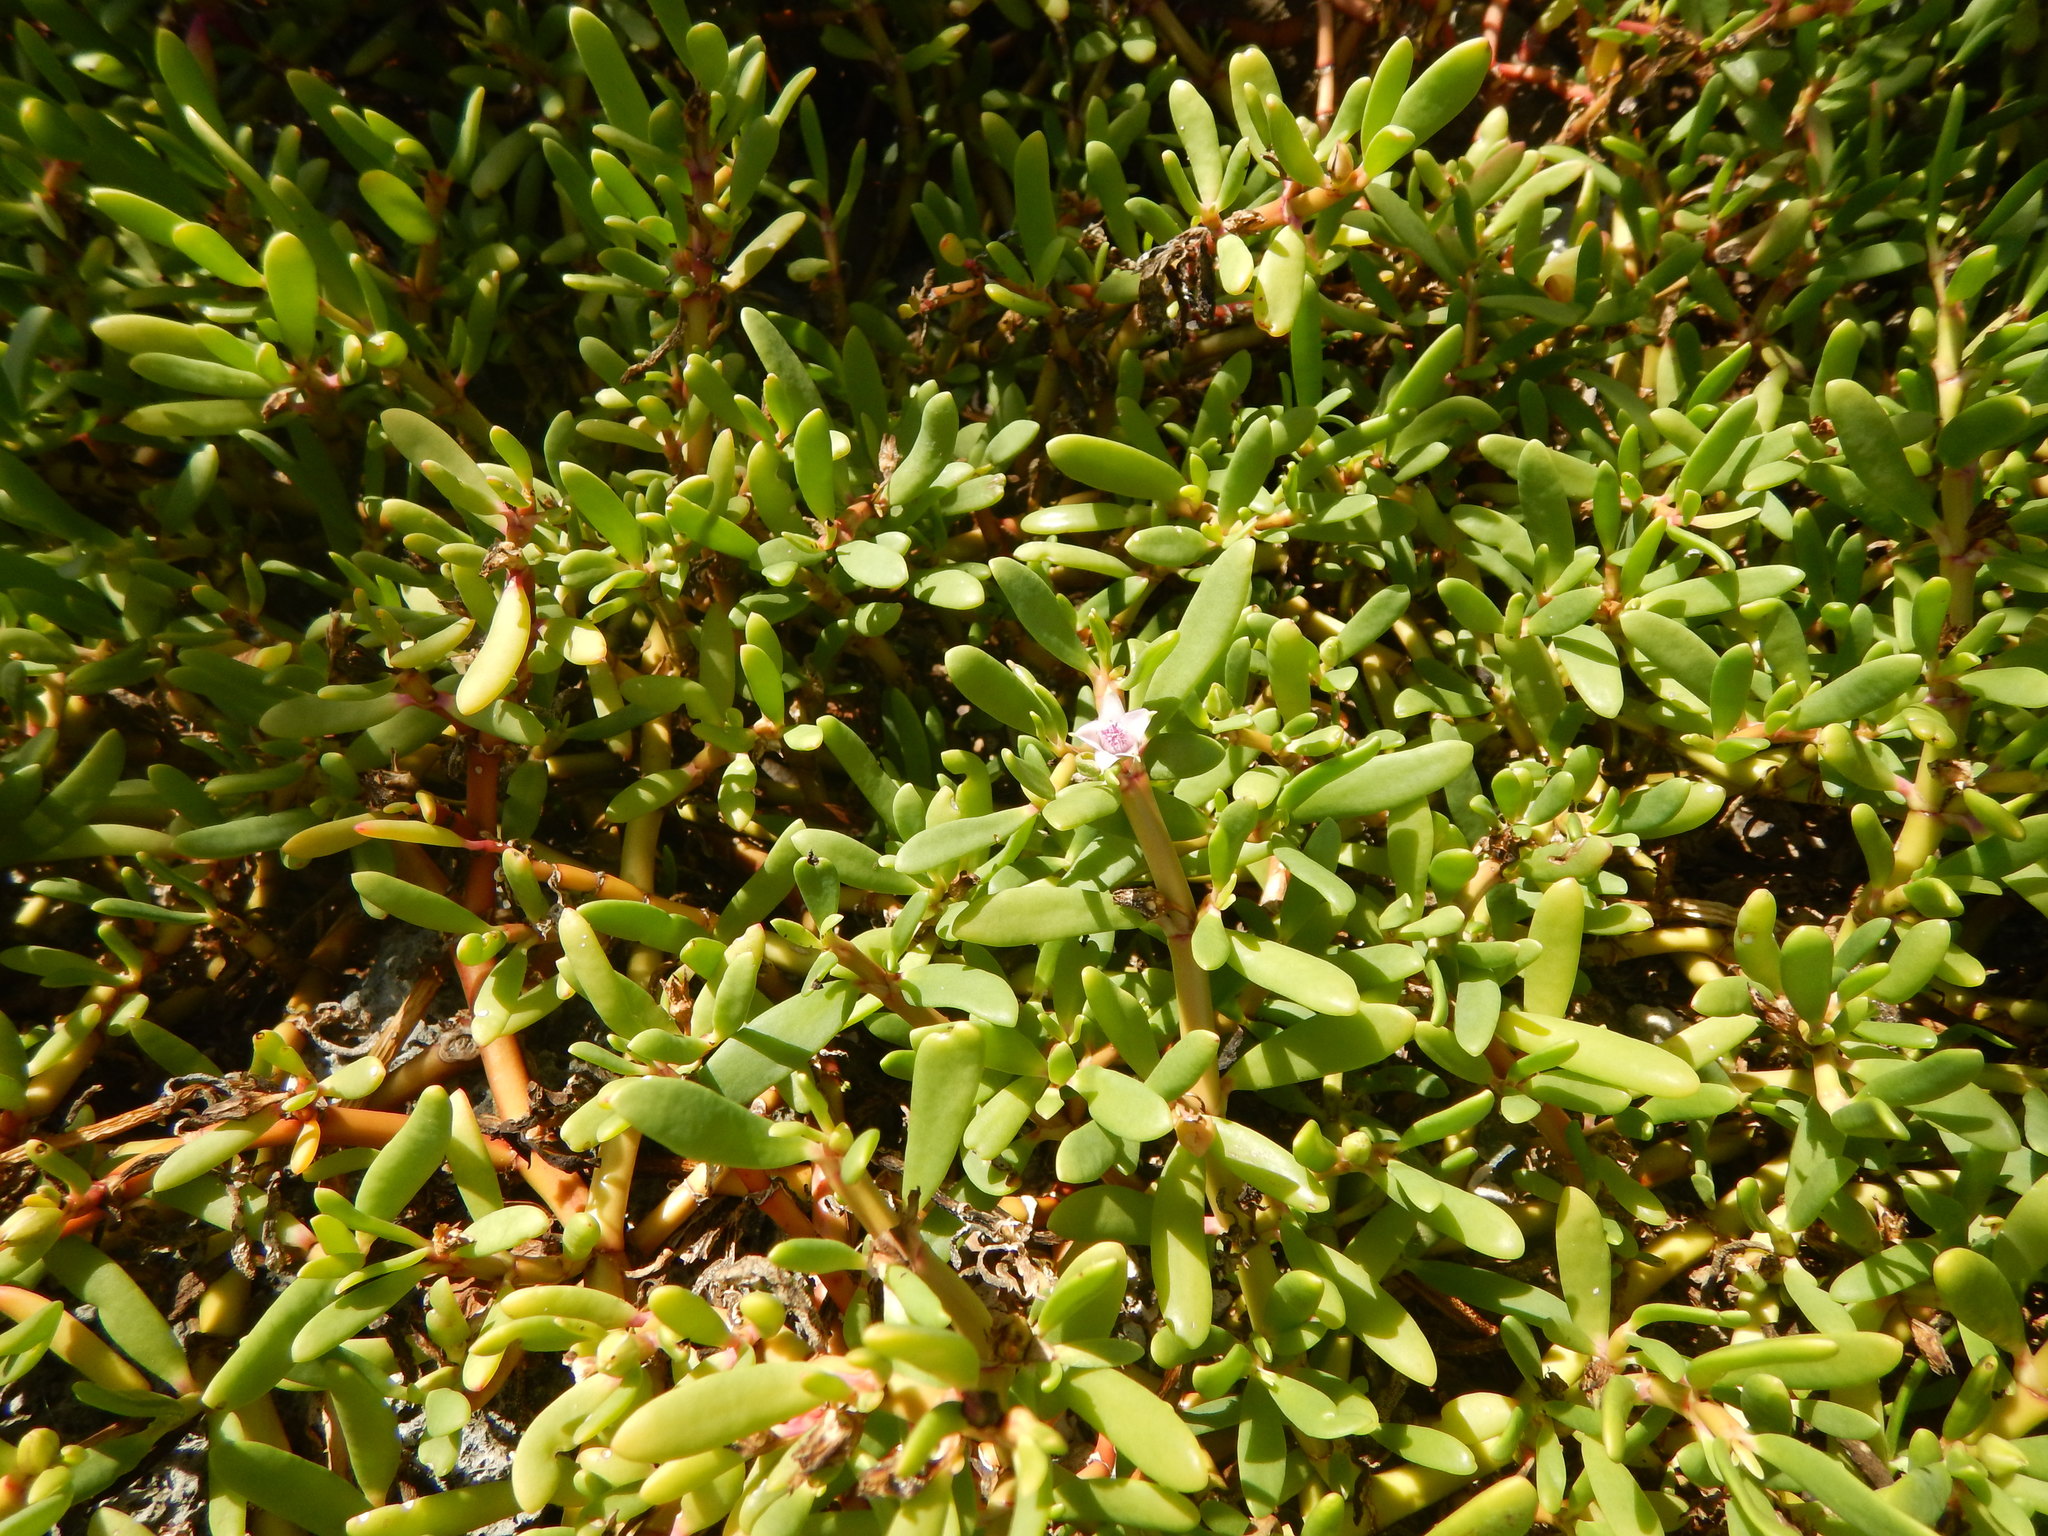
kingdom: Plantae
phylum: Tracheophyta
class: Magnoliopsida
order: Caryophyllales
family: Aizoaceae
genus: Sesuvium
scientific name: Sesuvium portulacastrum
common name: Sea-purslane
